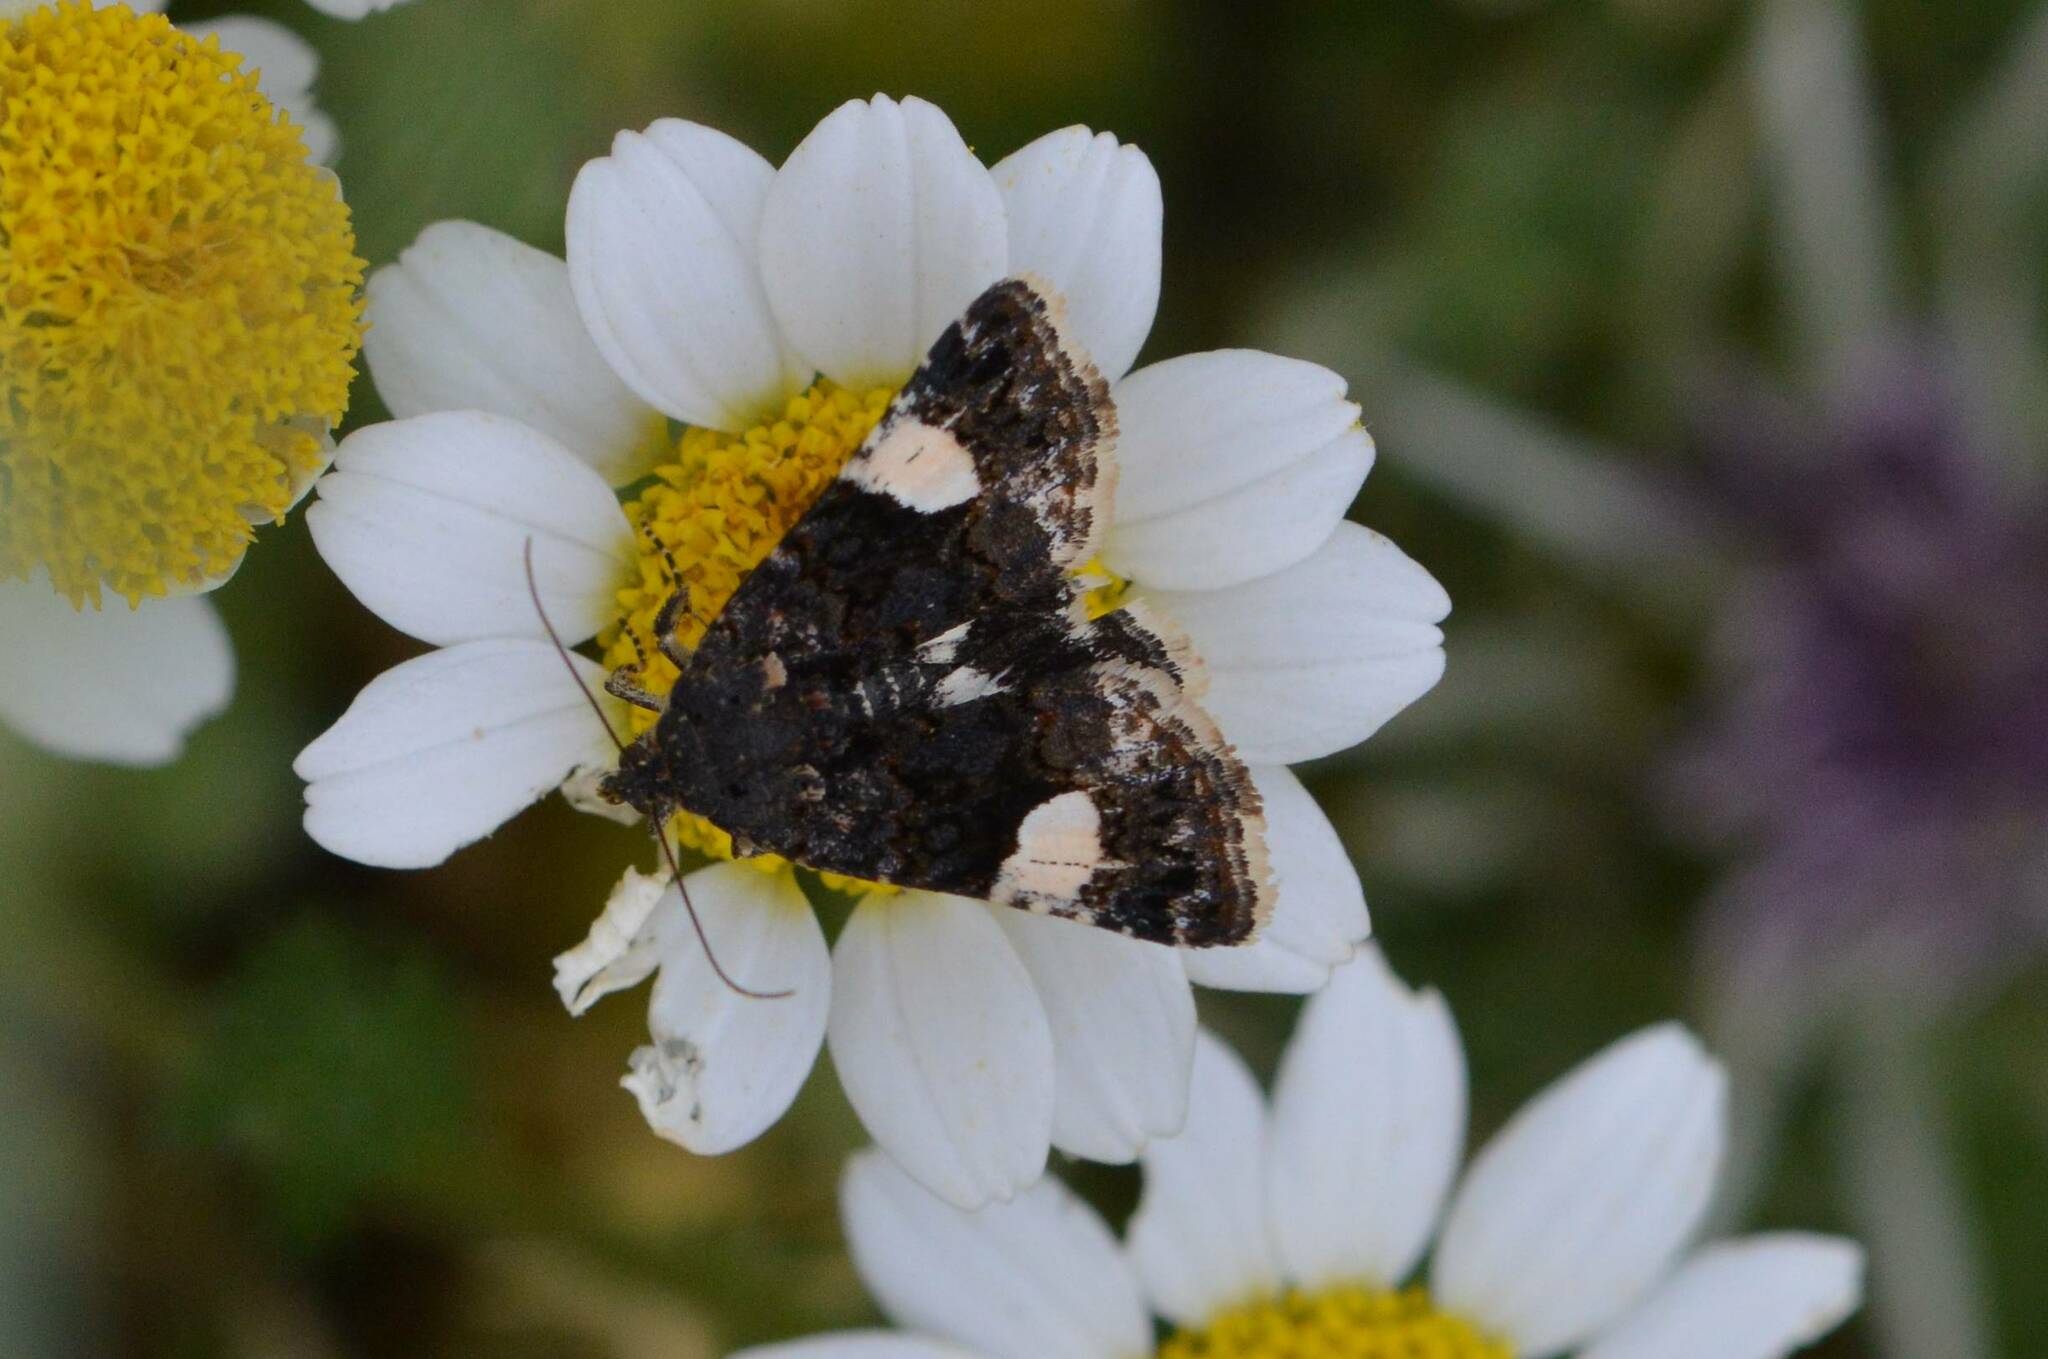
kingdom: Animalia
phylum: Arthropoda
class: Insecta
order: Lepidoptera
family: Erebidae
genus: Tyta
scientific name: Tyta luctuosa
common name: Four-spotted
